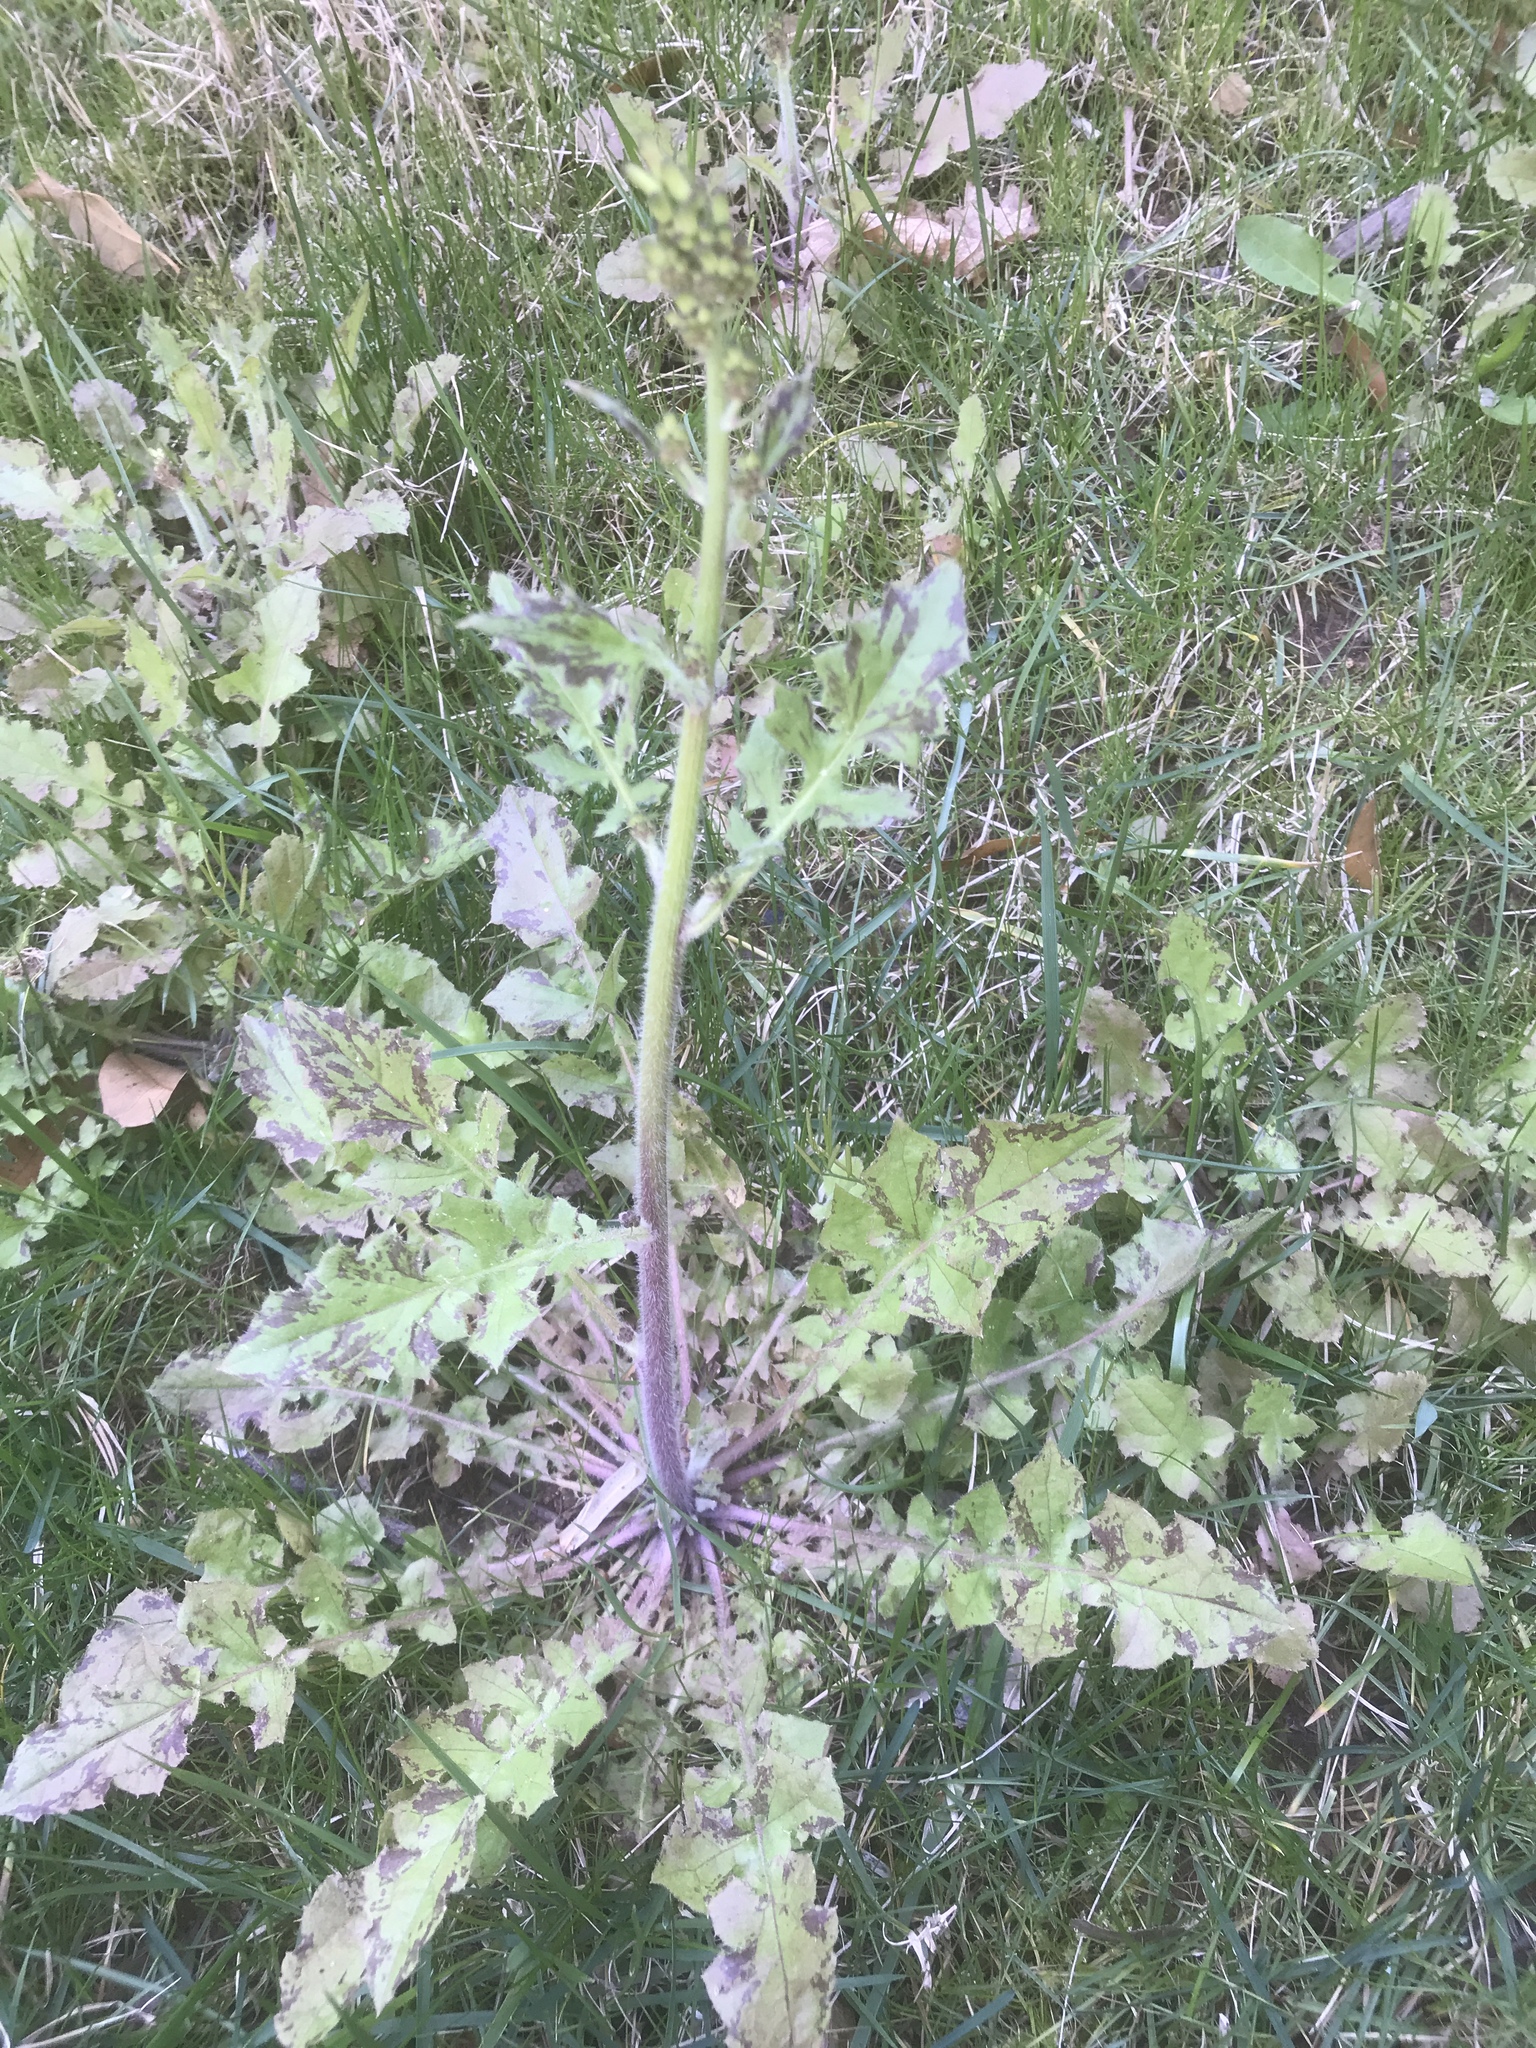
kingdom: Plantae
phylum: Tracheophyta
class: Magnoliopsida
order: Asterales
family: Asteraceae
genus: Youngia
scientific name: Youngia japonica
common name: Oriental false hawksbeard
